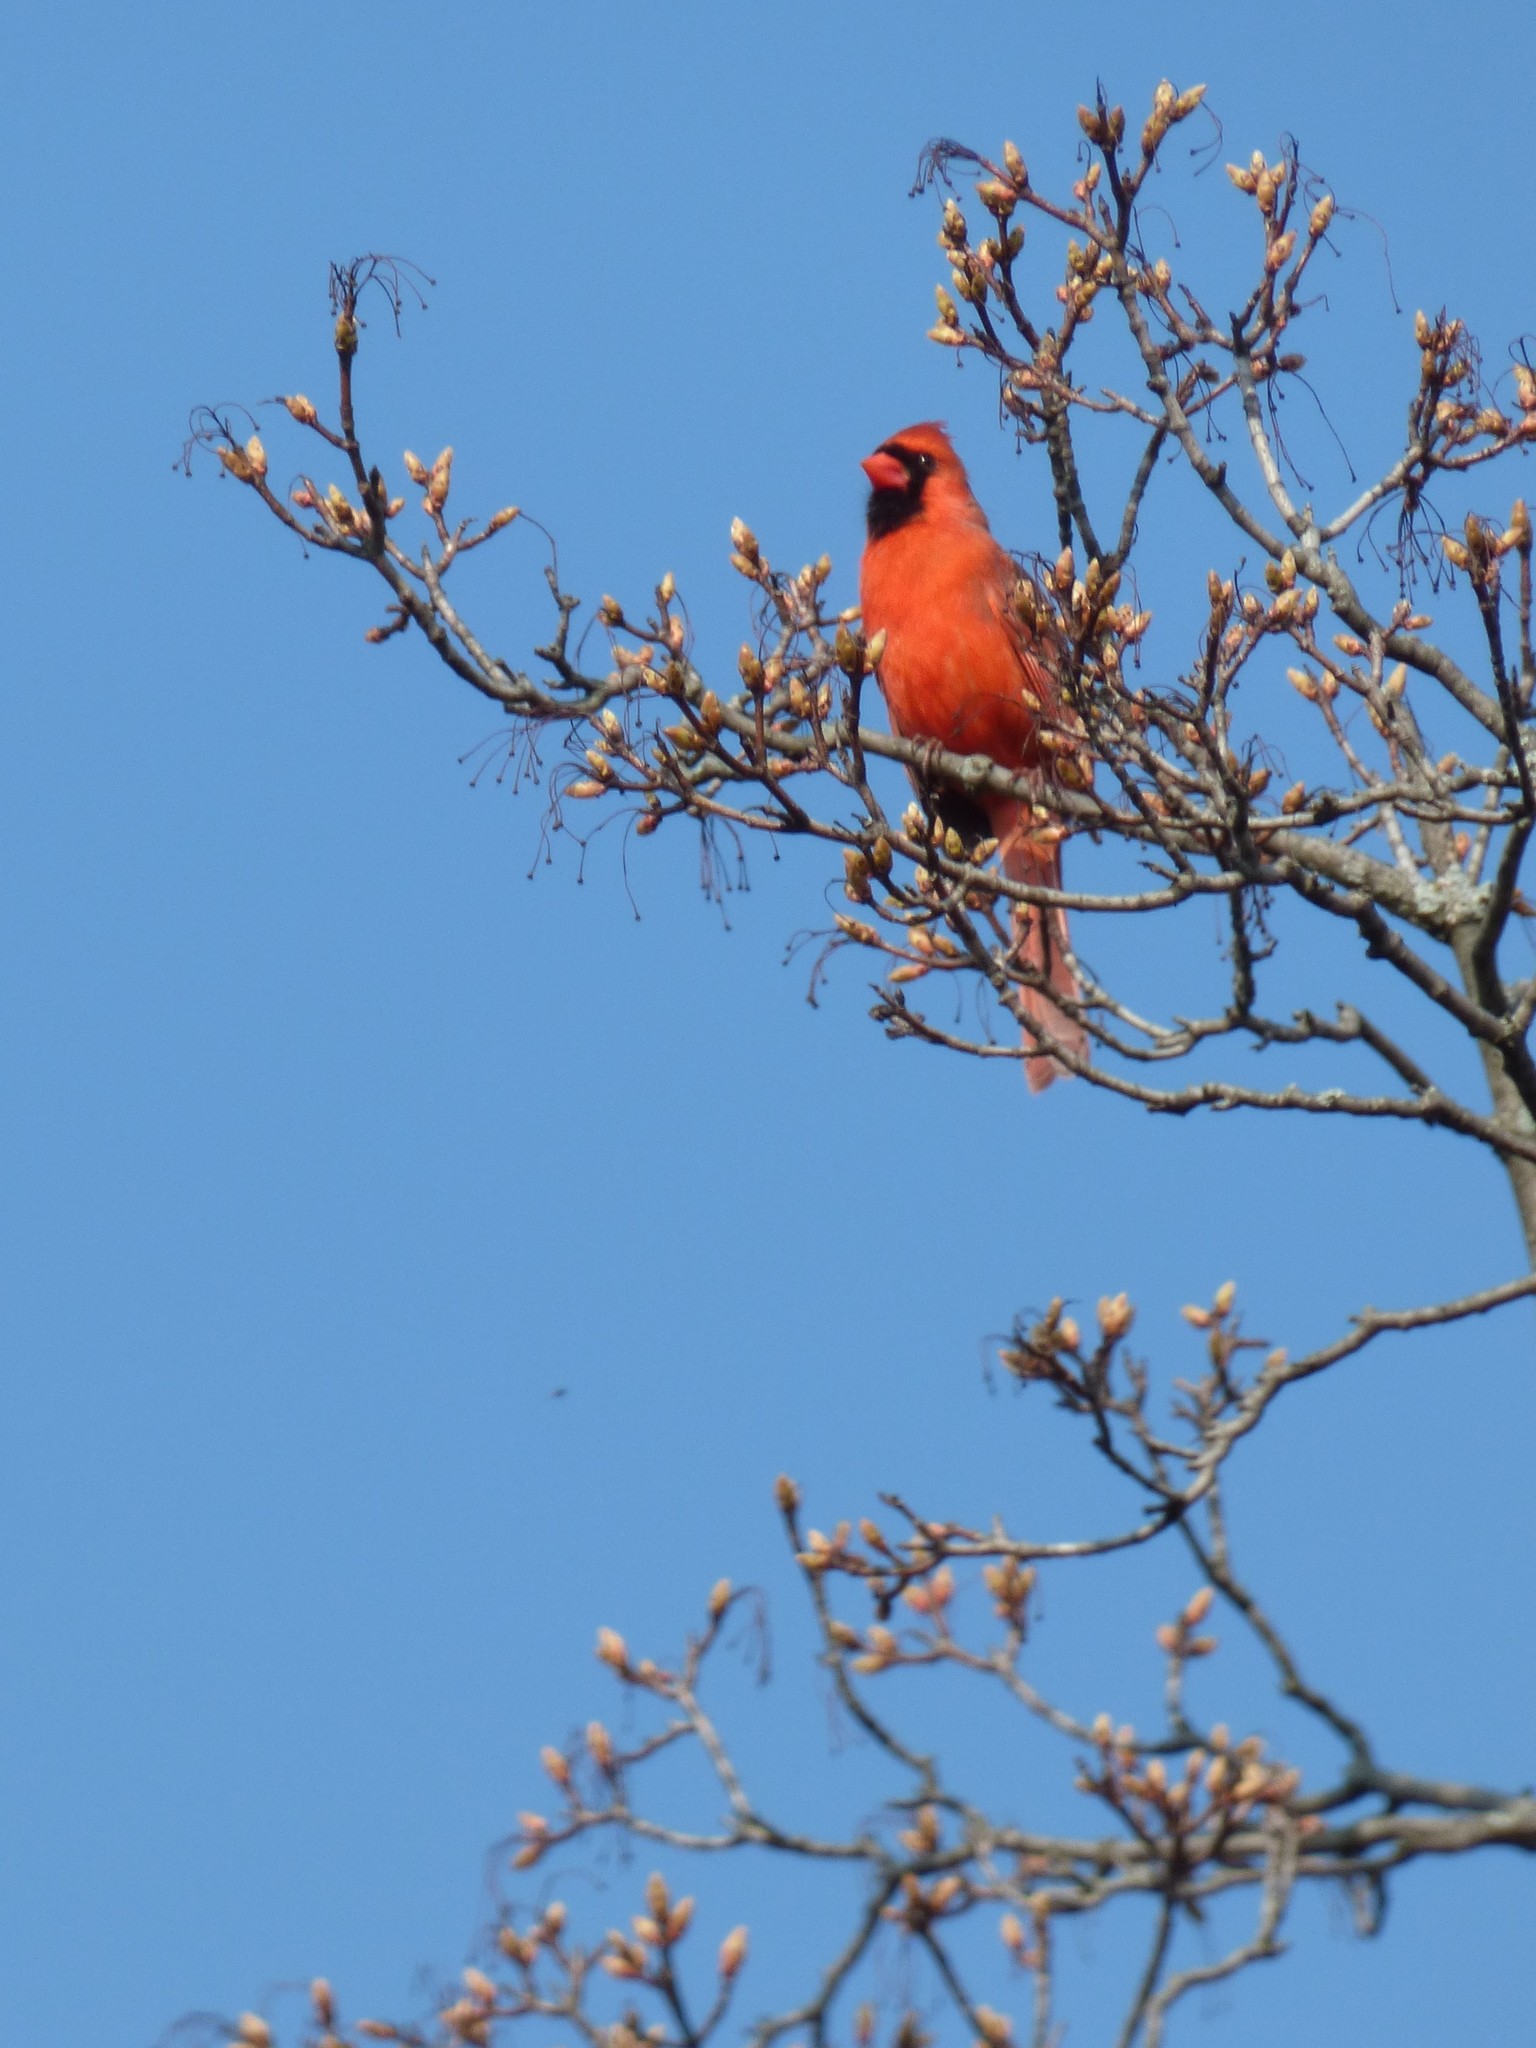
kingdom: Animalia
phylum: Chordata
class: Aves
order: Passeriformes
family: Cardinalidae
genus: Cardinalis
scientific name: Cardinalis cardinalis
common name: Northern cardinal
